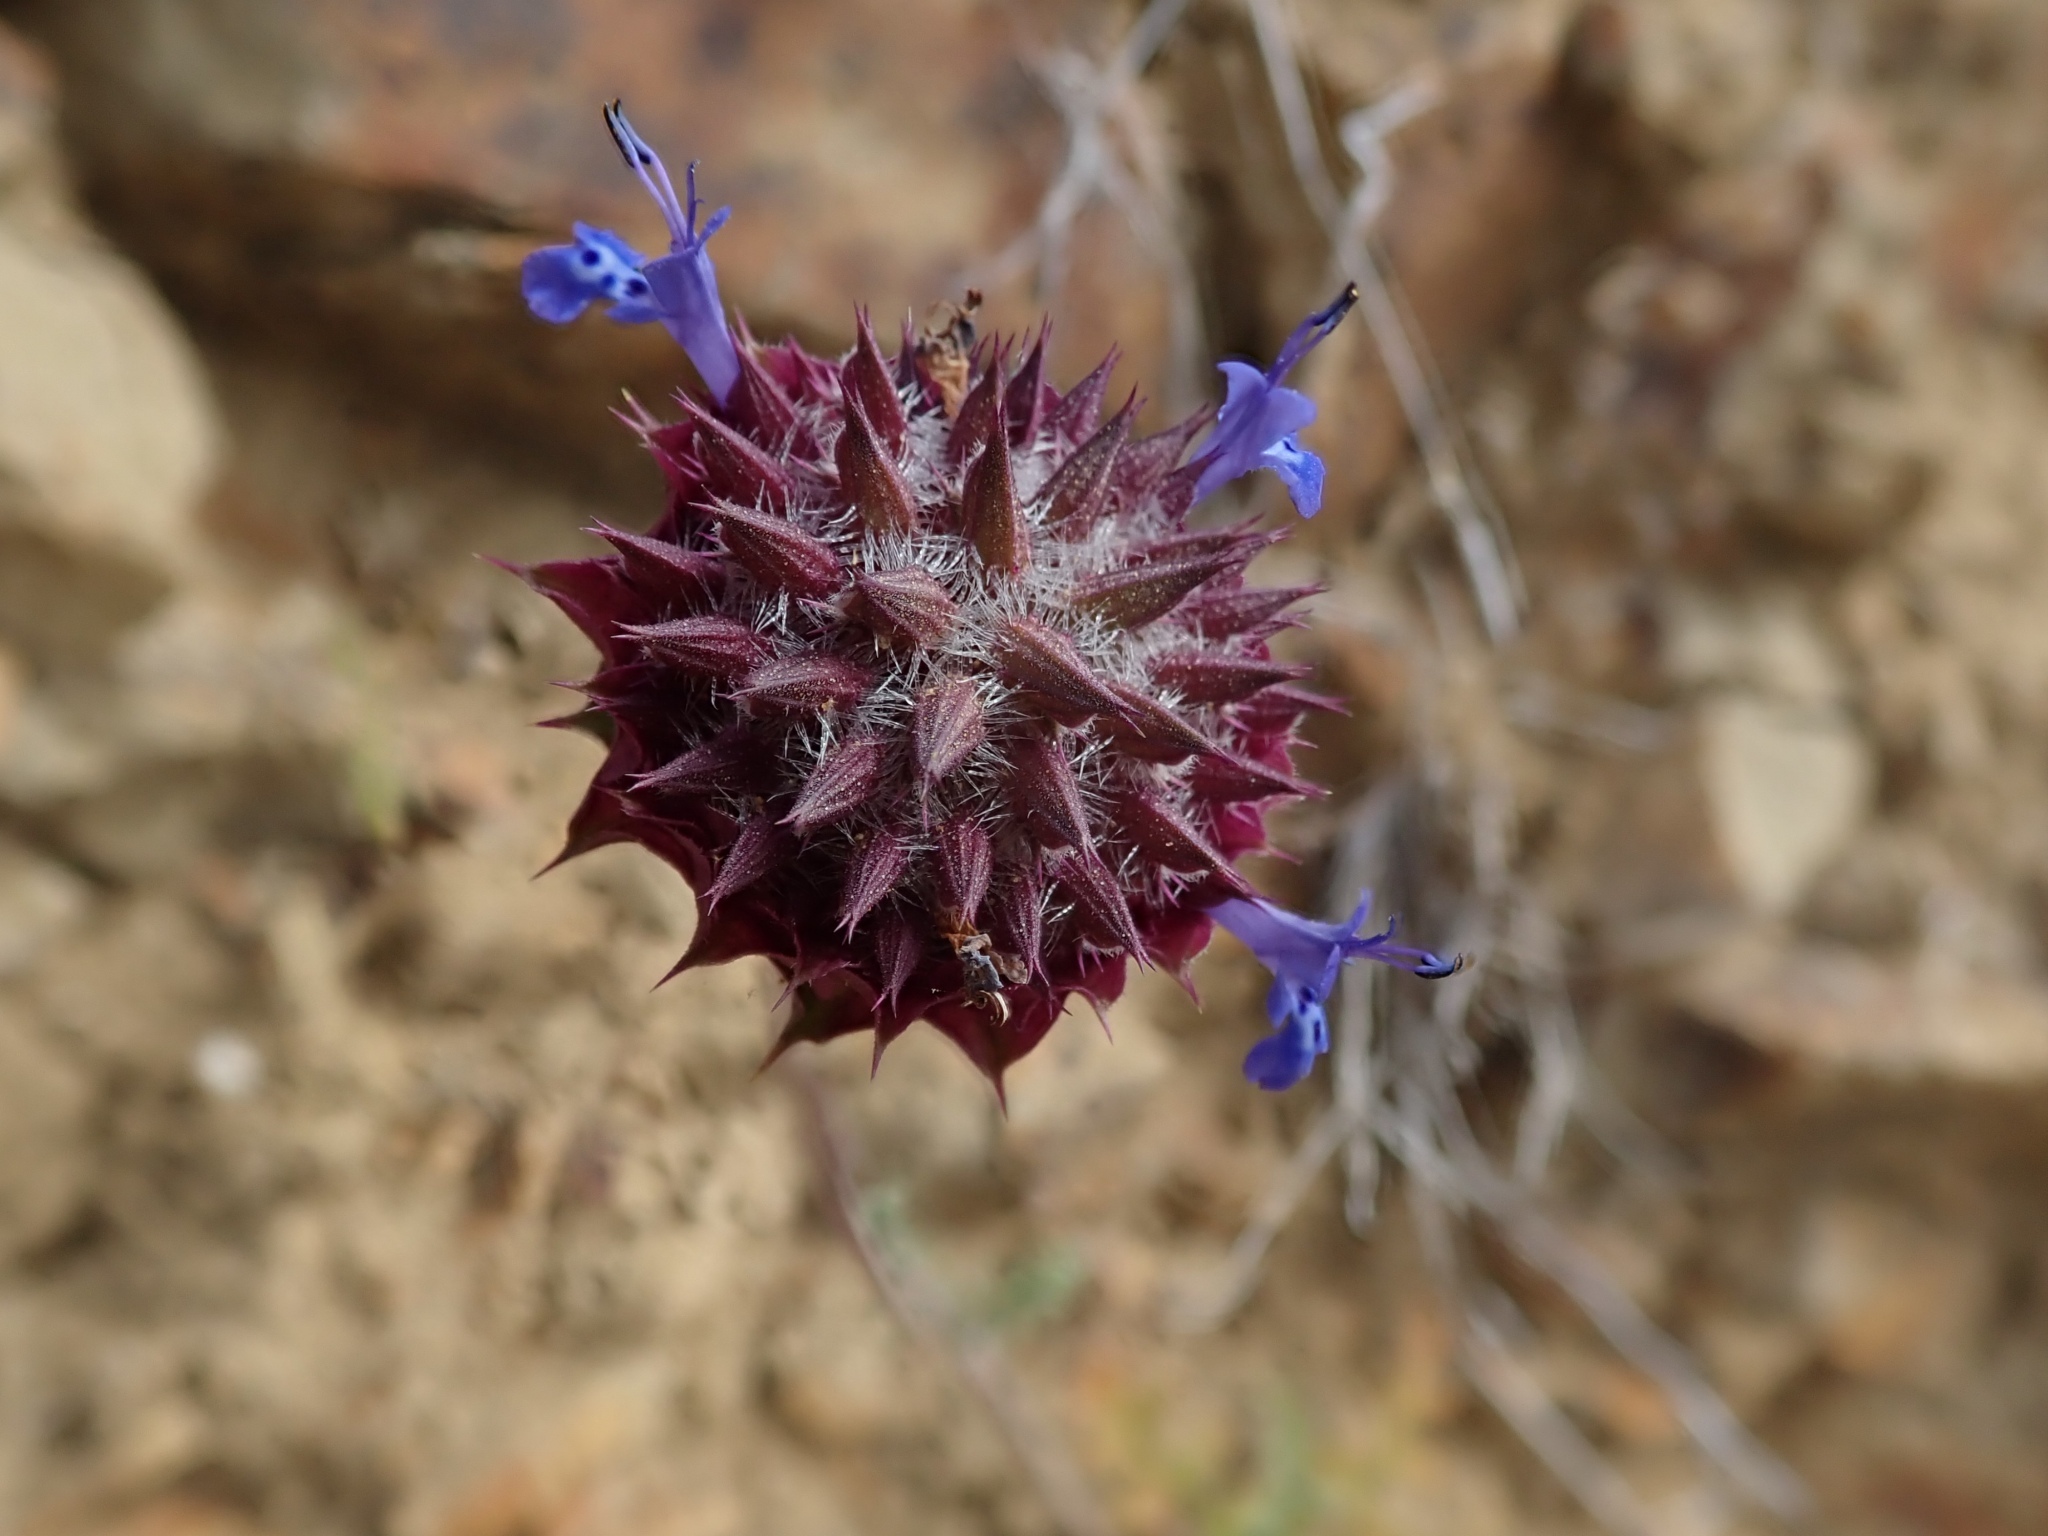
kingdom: Plantae
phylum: Tracheophyta
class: Magnoliopsida
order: Lamiales
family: Lamiaceae
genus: Salvia
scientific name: Salvia columbariae
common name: Chia
